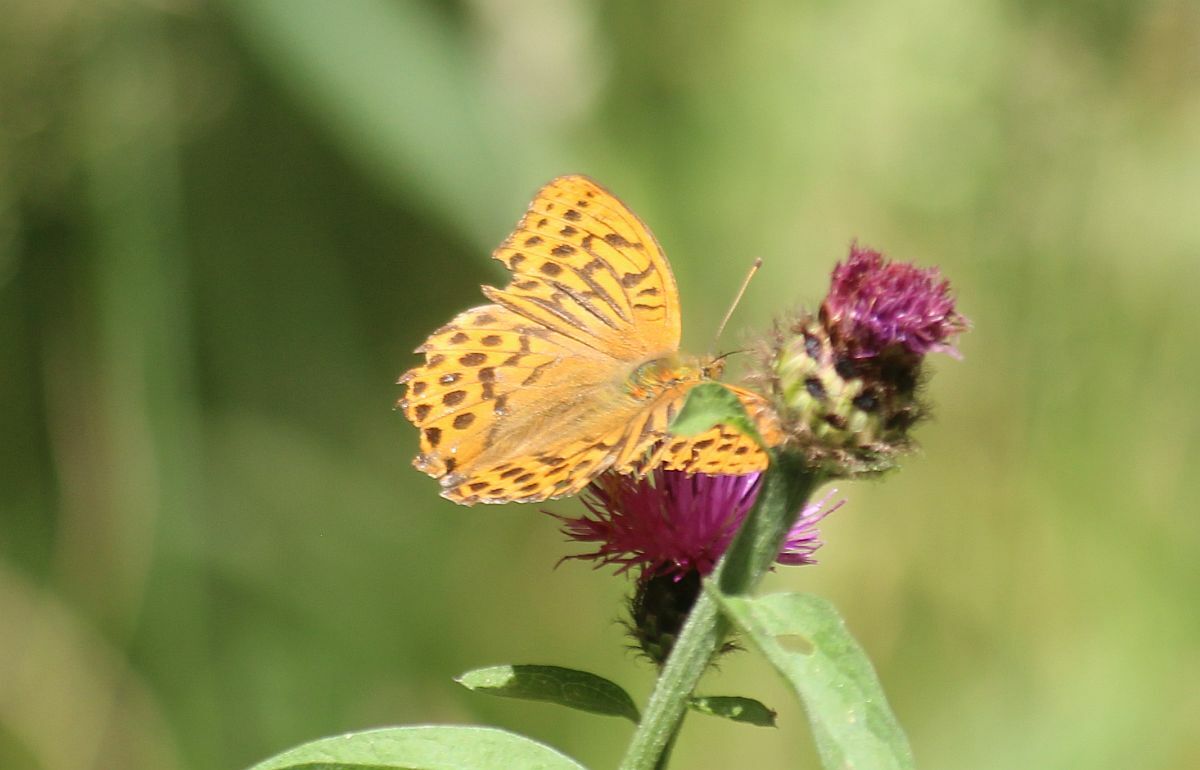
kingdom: Animalia
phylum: Arthropoda
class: Insecta
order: Lepidoptera
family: Nymphalidae
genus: Argynnis
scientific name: Argynnis paphia
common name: Silver-washed fritillary
